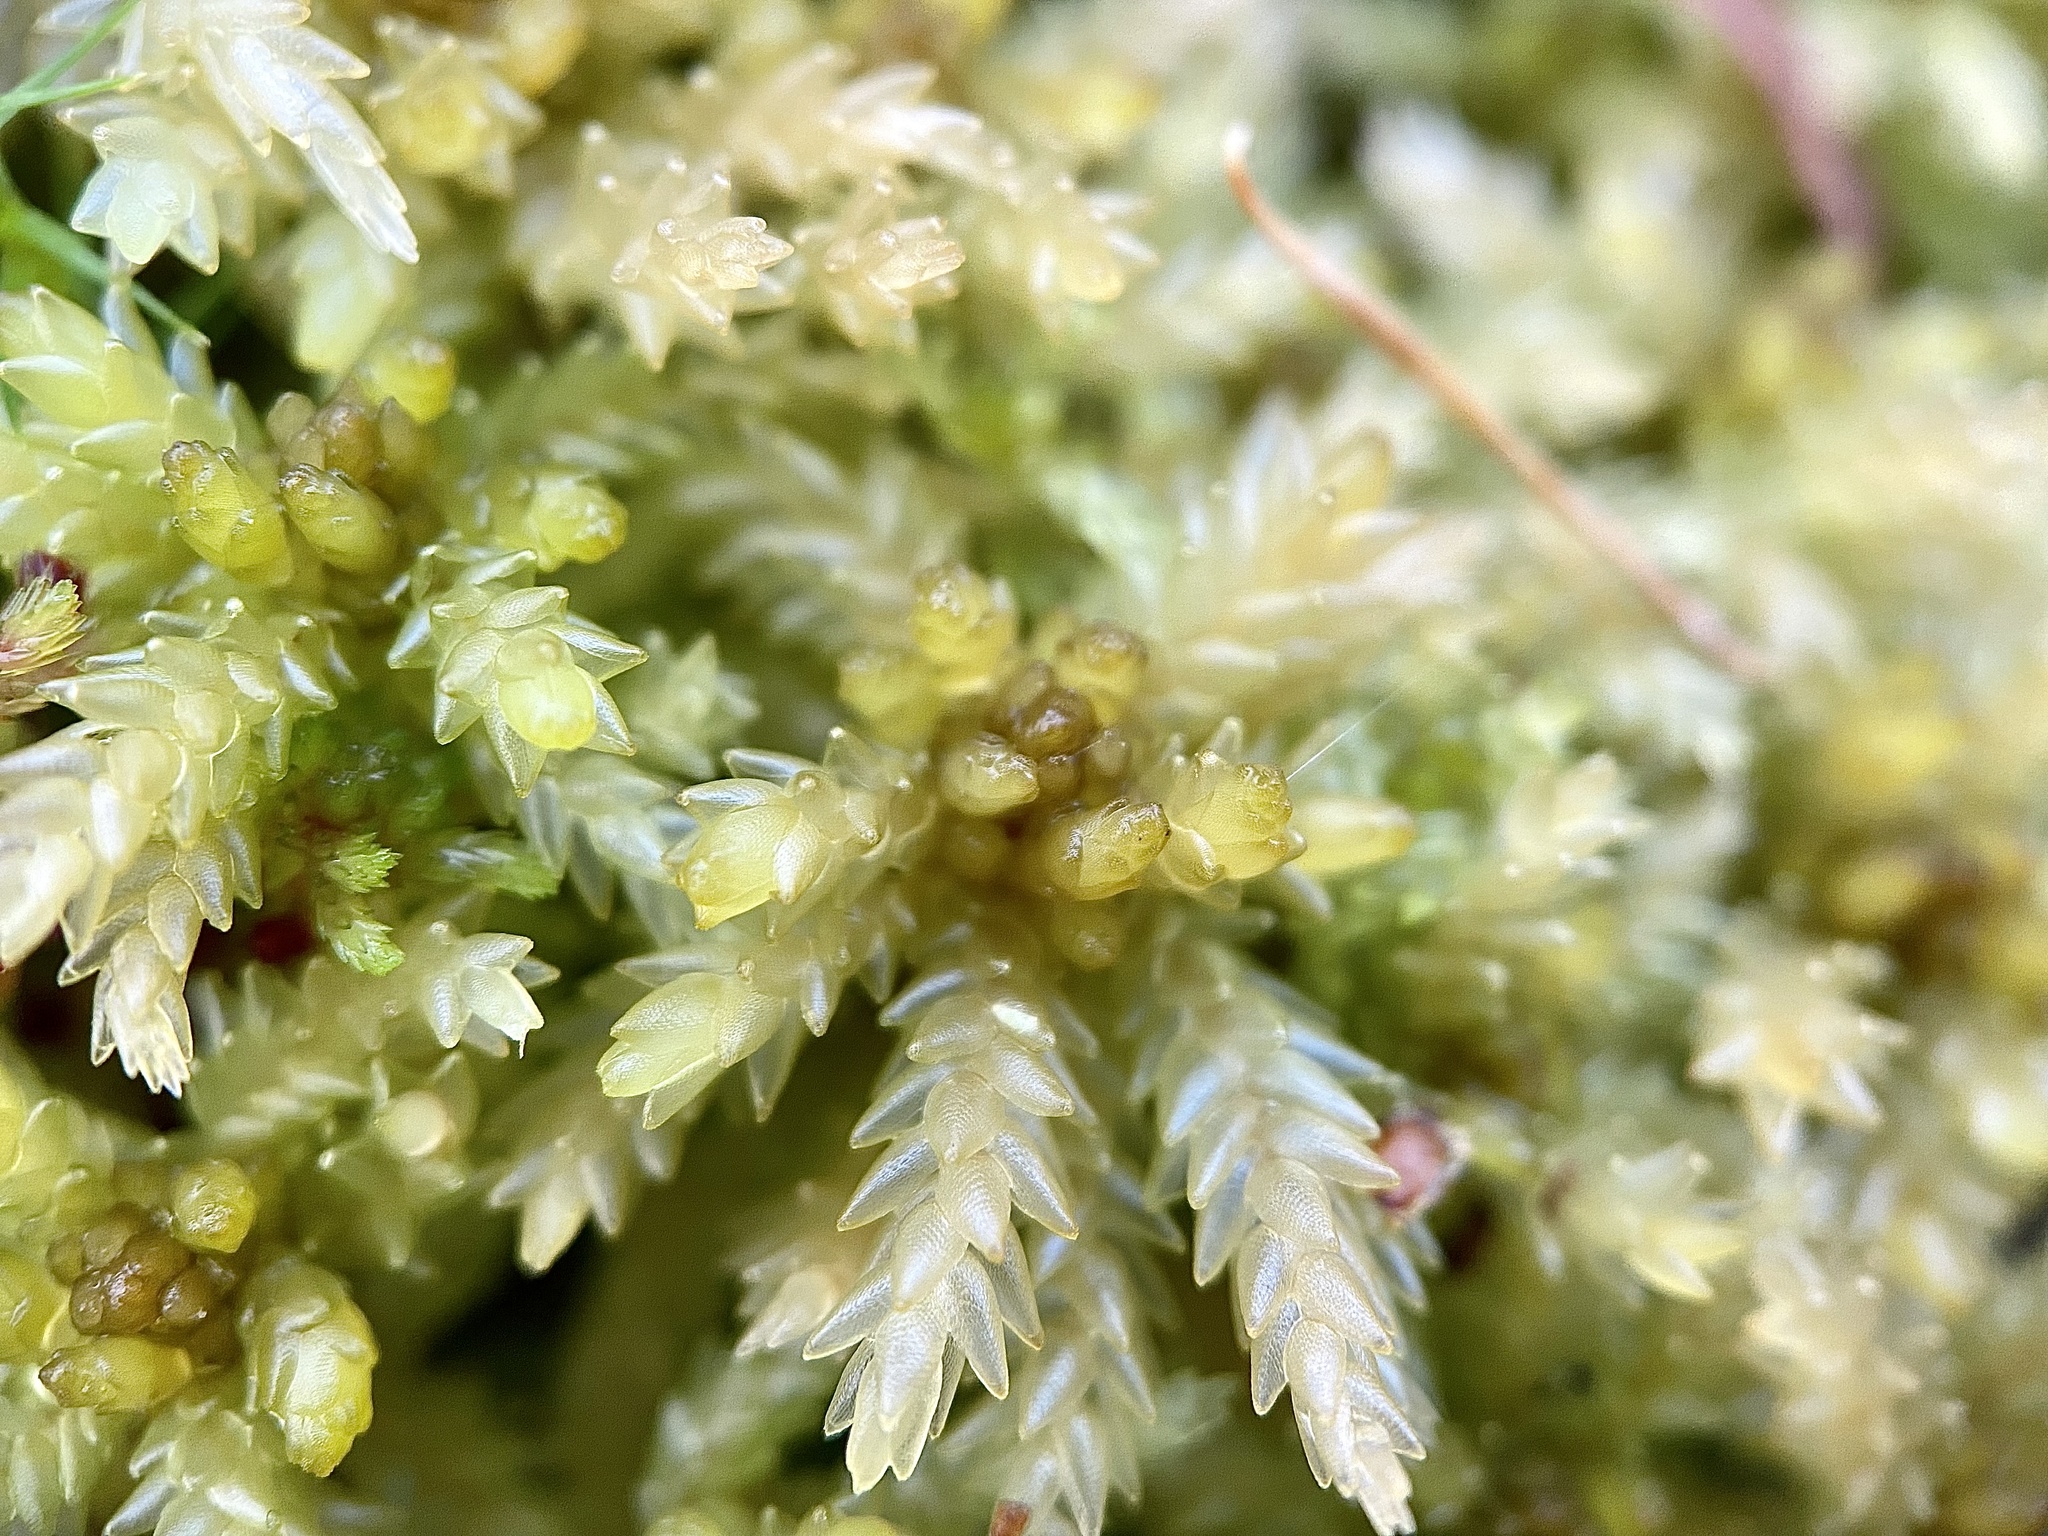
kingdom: Plantae
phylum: Bryophyta
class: Sphagnopsida
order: Sphagnales
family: Sphagnaceae
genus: Sphagnum
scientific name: Sphagnum palustre
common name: Blunt-leaved bog-moss
